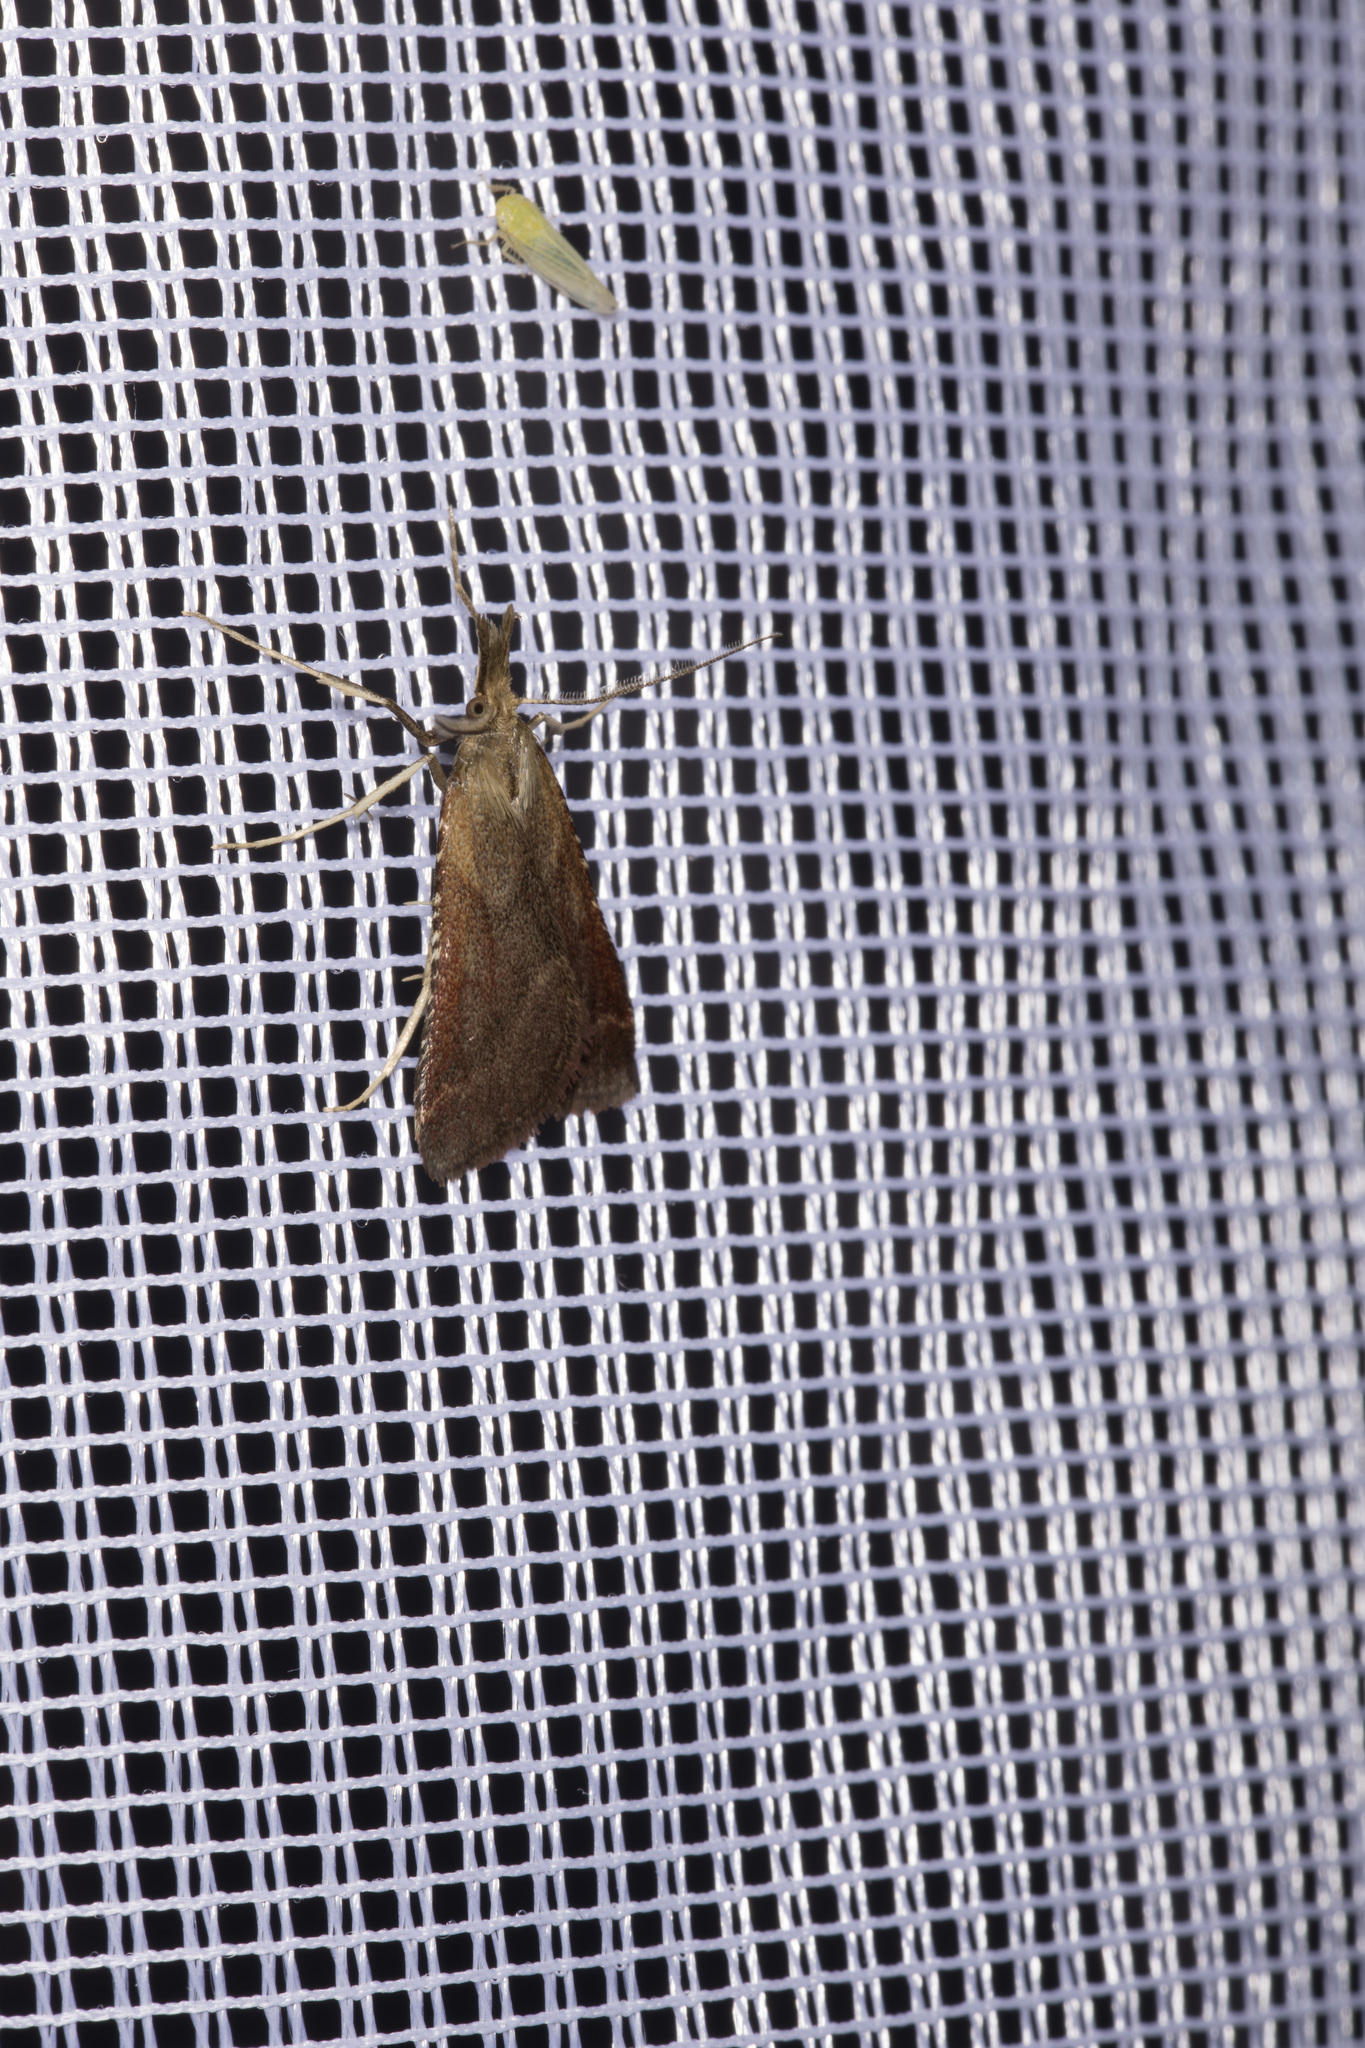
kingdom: Animalia
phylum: Arthropoda
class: Insecta
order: Lepidoptera
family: Pyralidae
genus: Synaphe
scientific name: Synaphe punctalis
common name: Long-legged tabby
